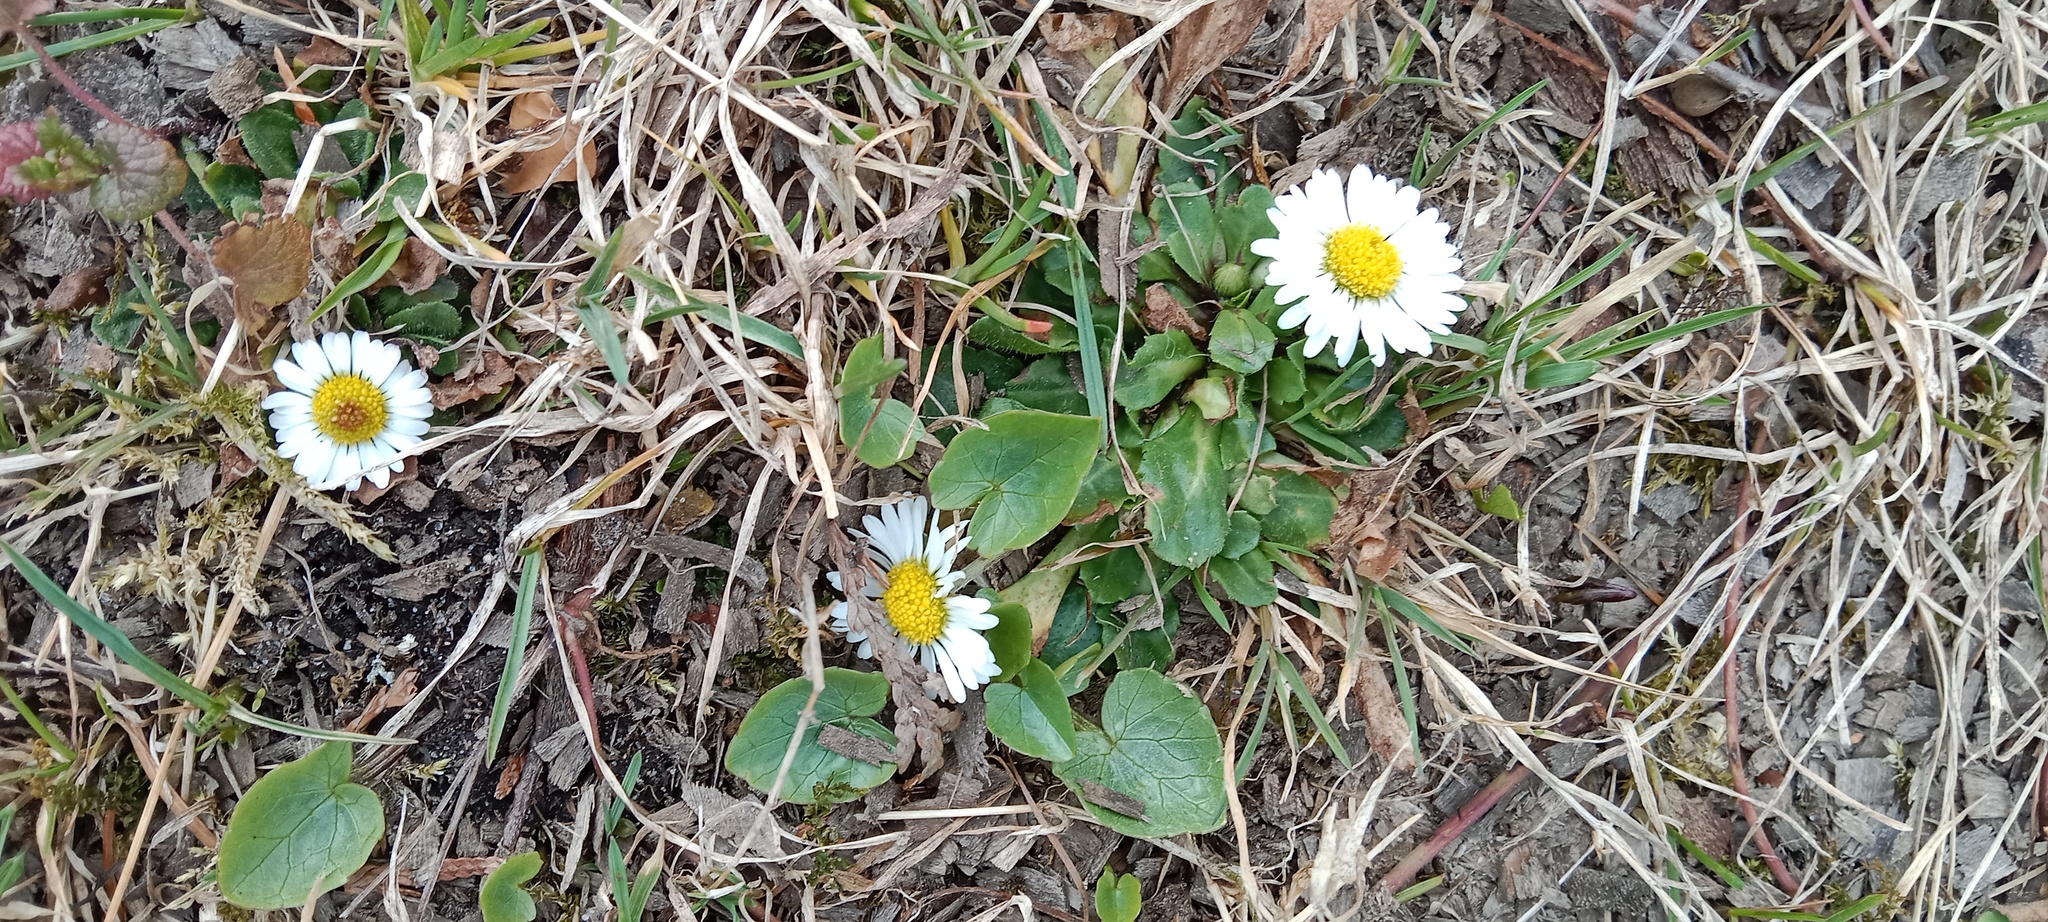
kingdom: Plantae
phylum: Tracheophyta
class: Magnoliopsida
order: Asterales
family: Asteraceae
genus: Bellis
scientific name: Bellis perennis
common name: Lawndaisy
